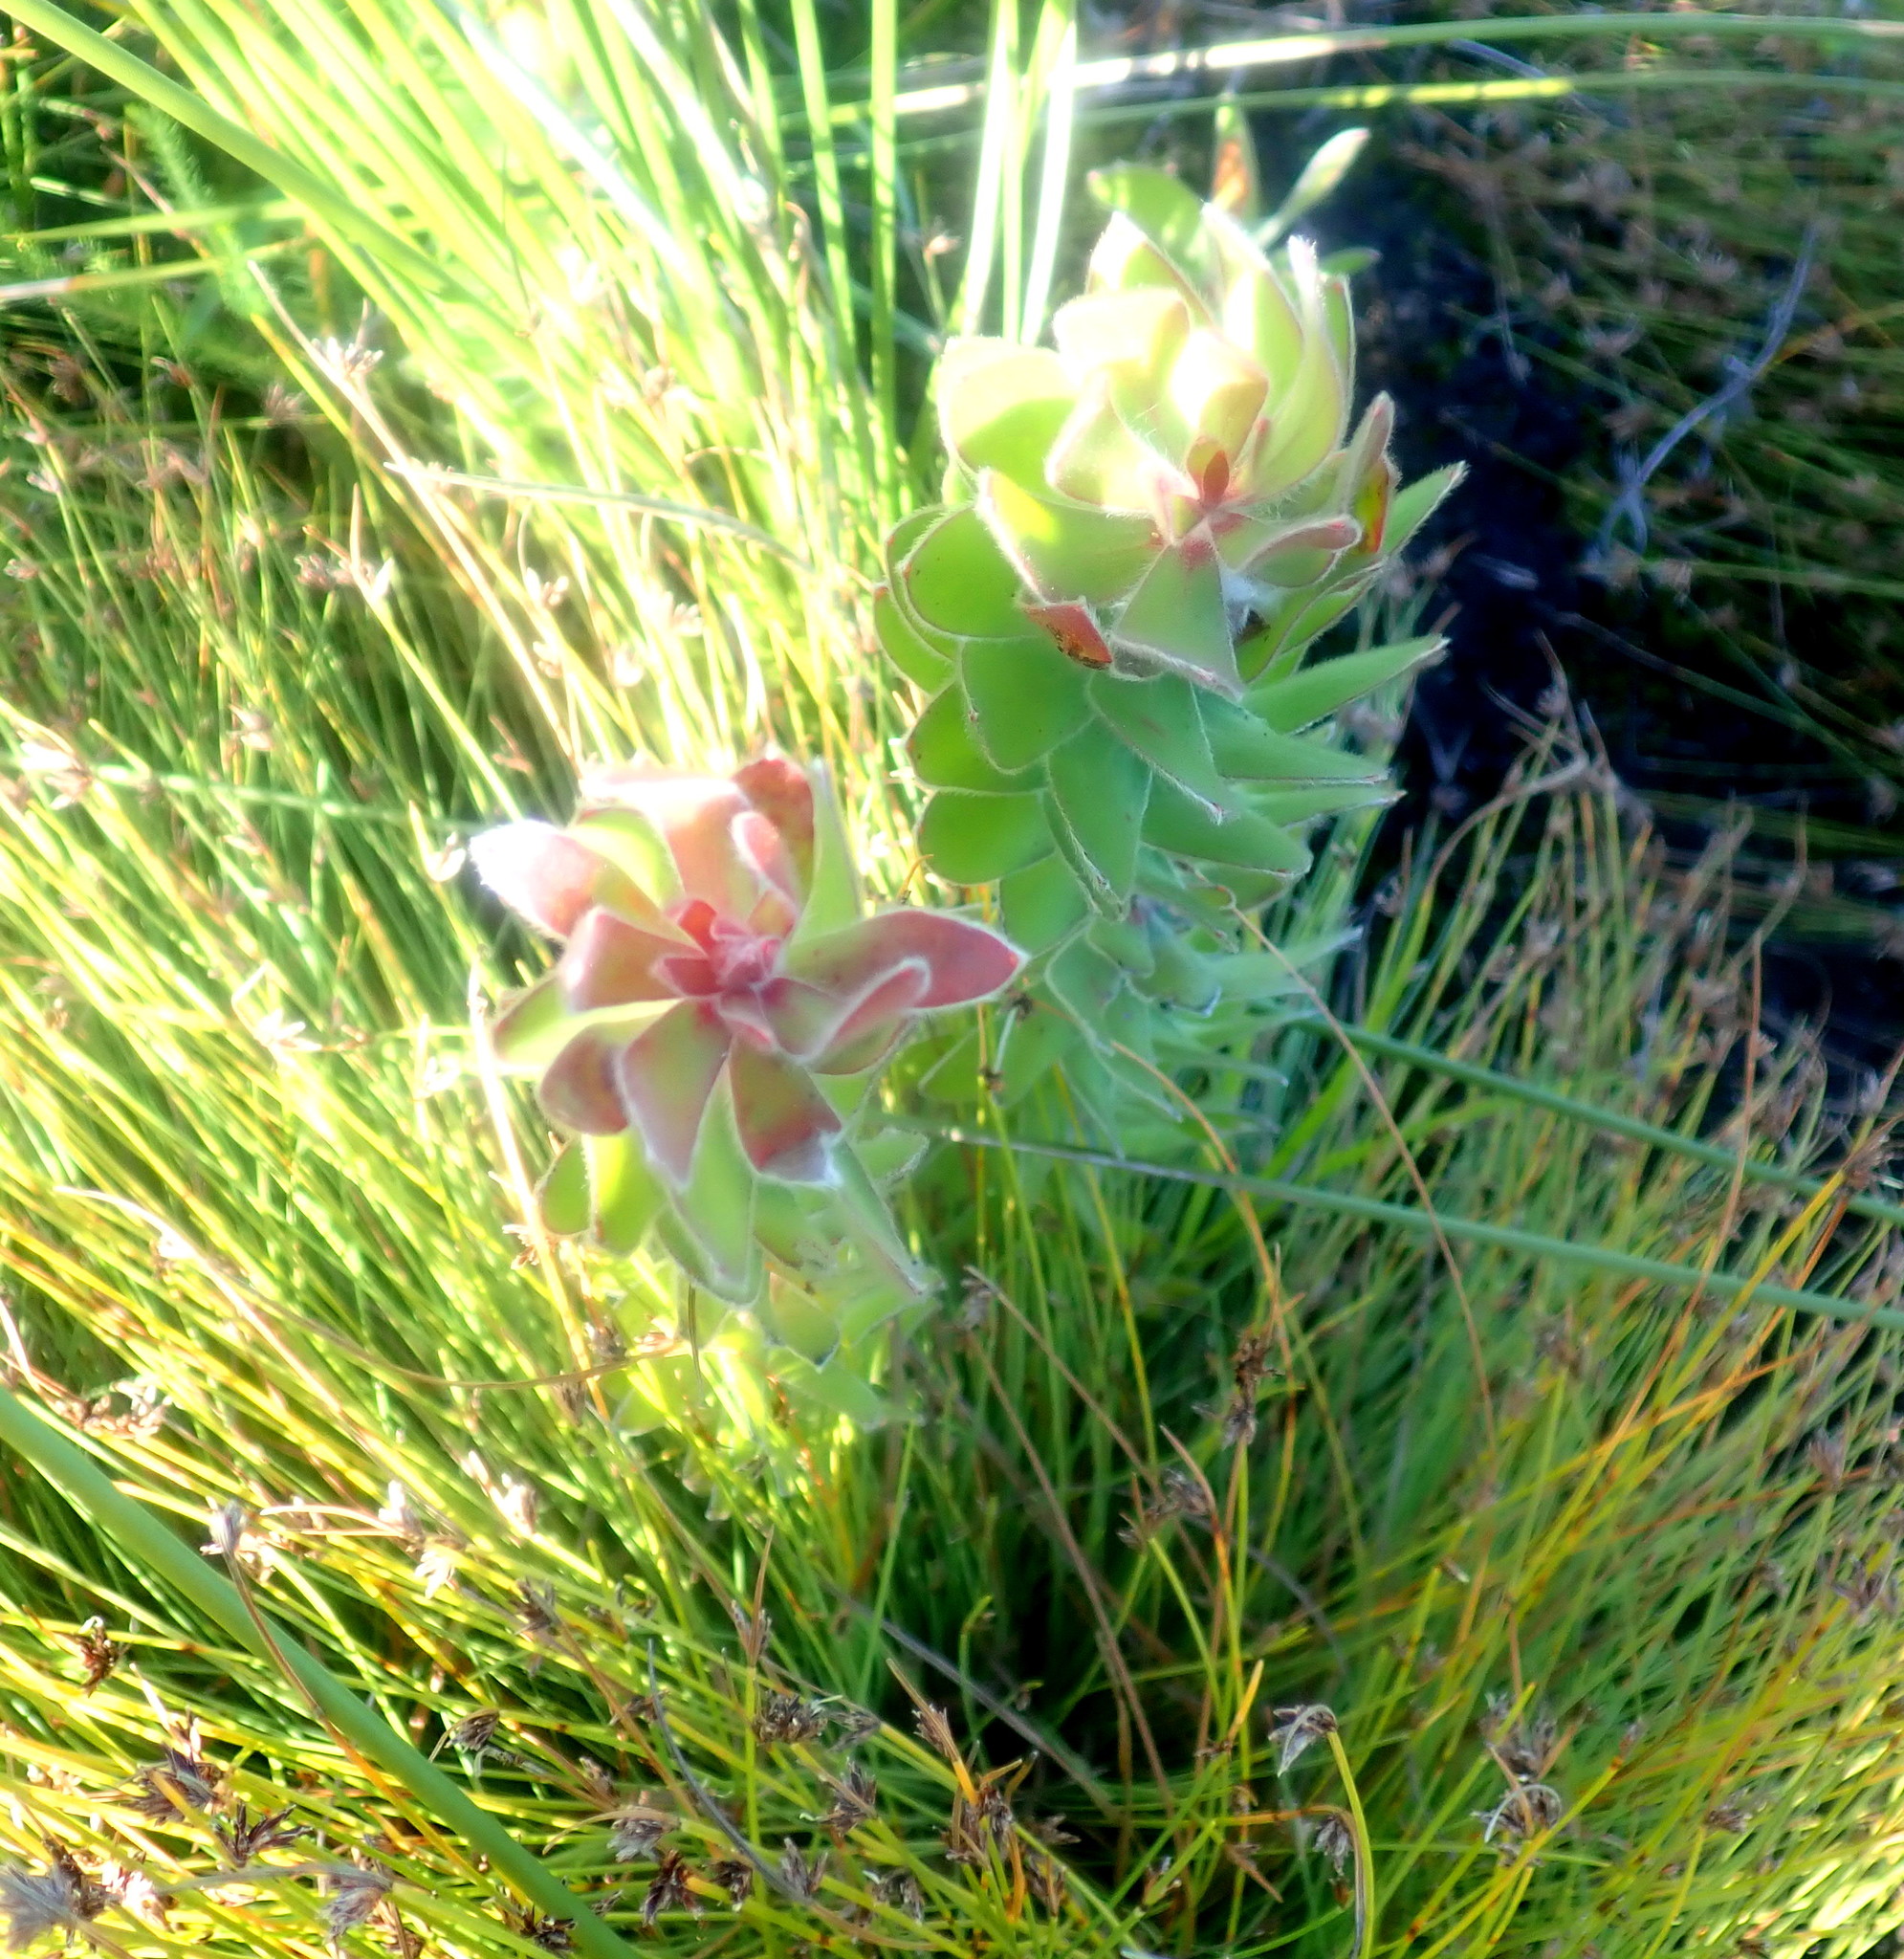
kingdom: Plantae
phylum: Tracheophyta
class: Magnoliopsida
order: Proteales
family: Proteaceae
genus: Mimetes
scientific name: Mimetes pauciflora
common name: Three-flowered pagoda
